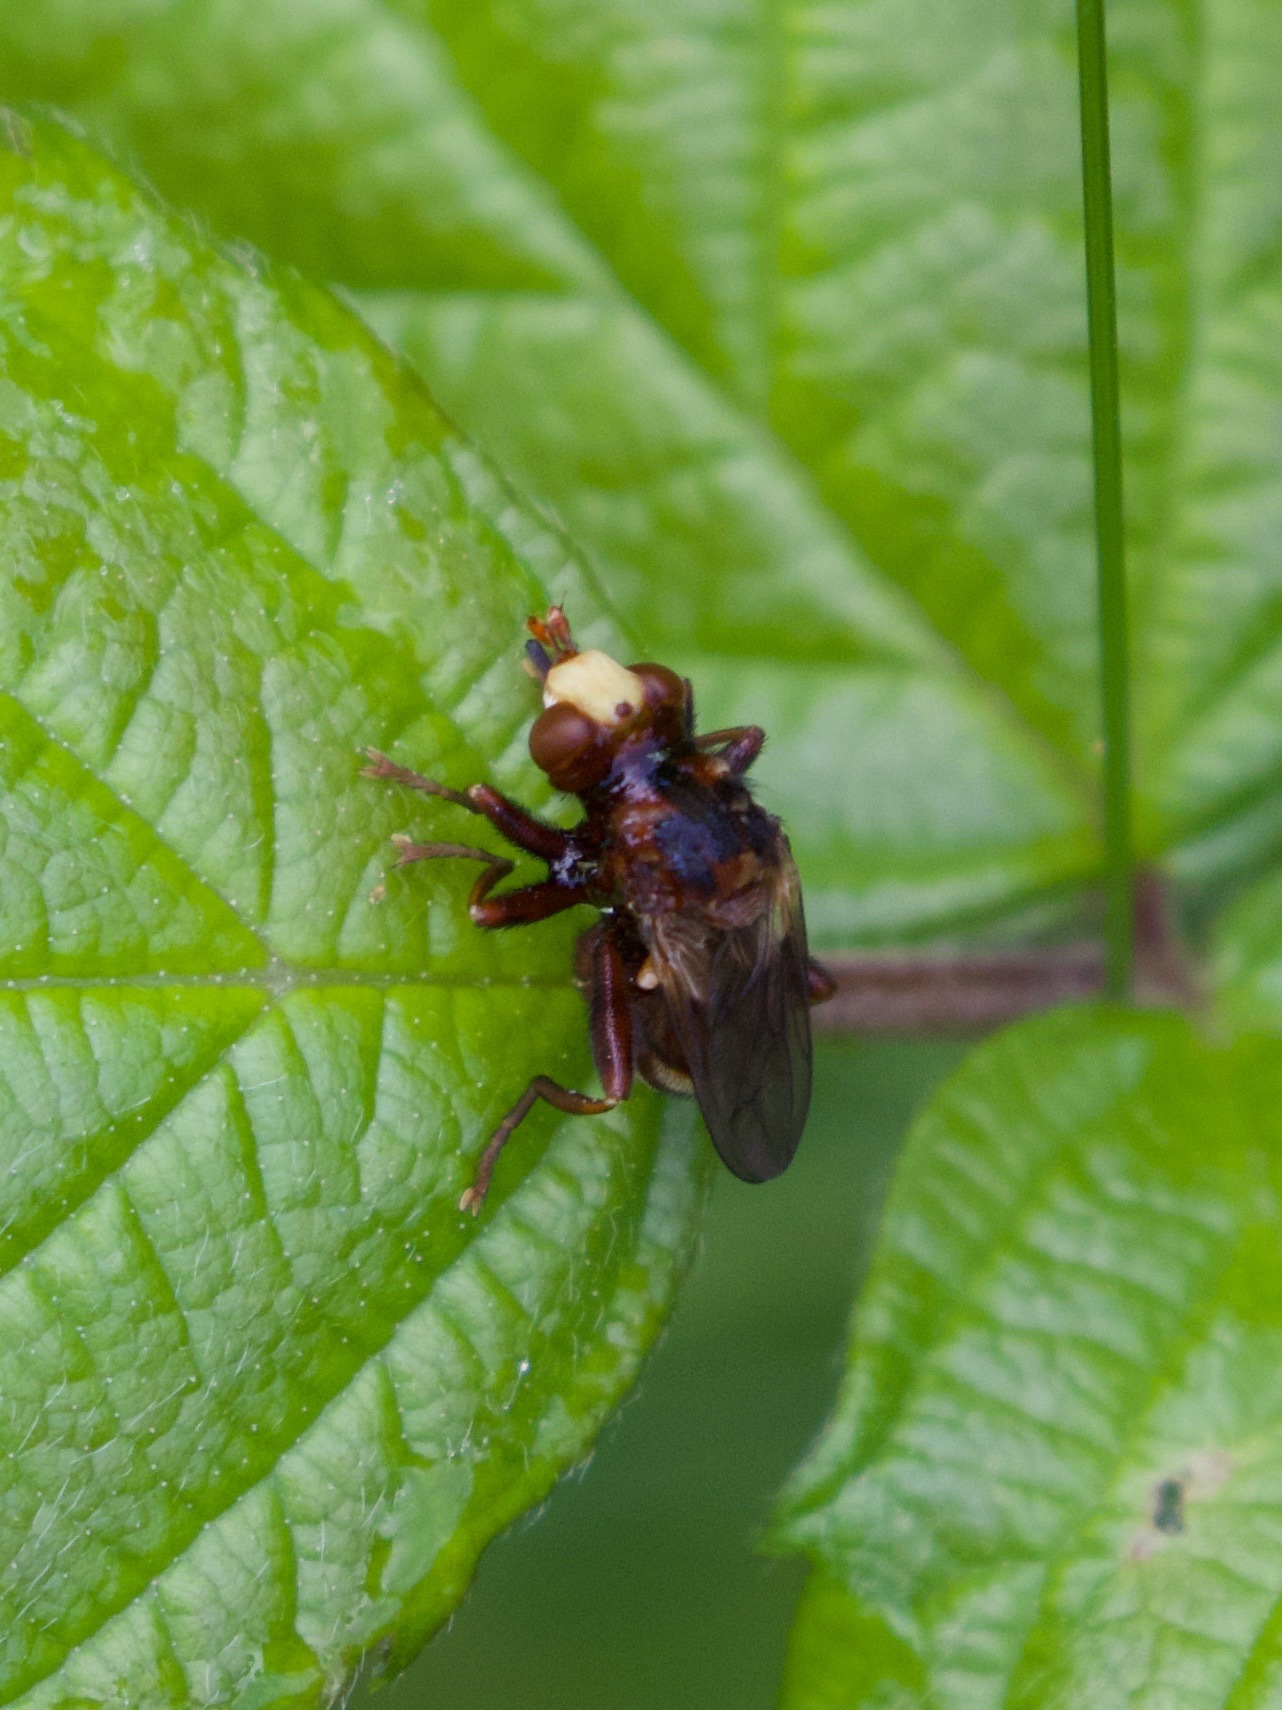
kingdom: Animalia
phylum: Arthropoda
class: Insecta
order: Diptera
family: Conopidae
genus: Sicus
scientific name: Sicus ferrugineus
